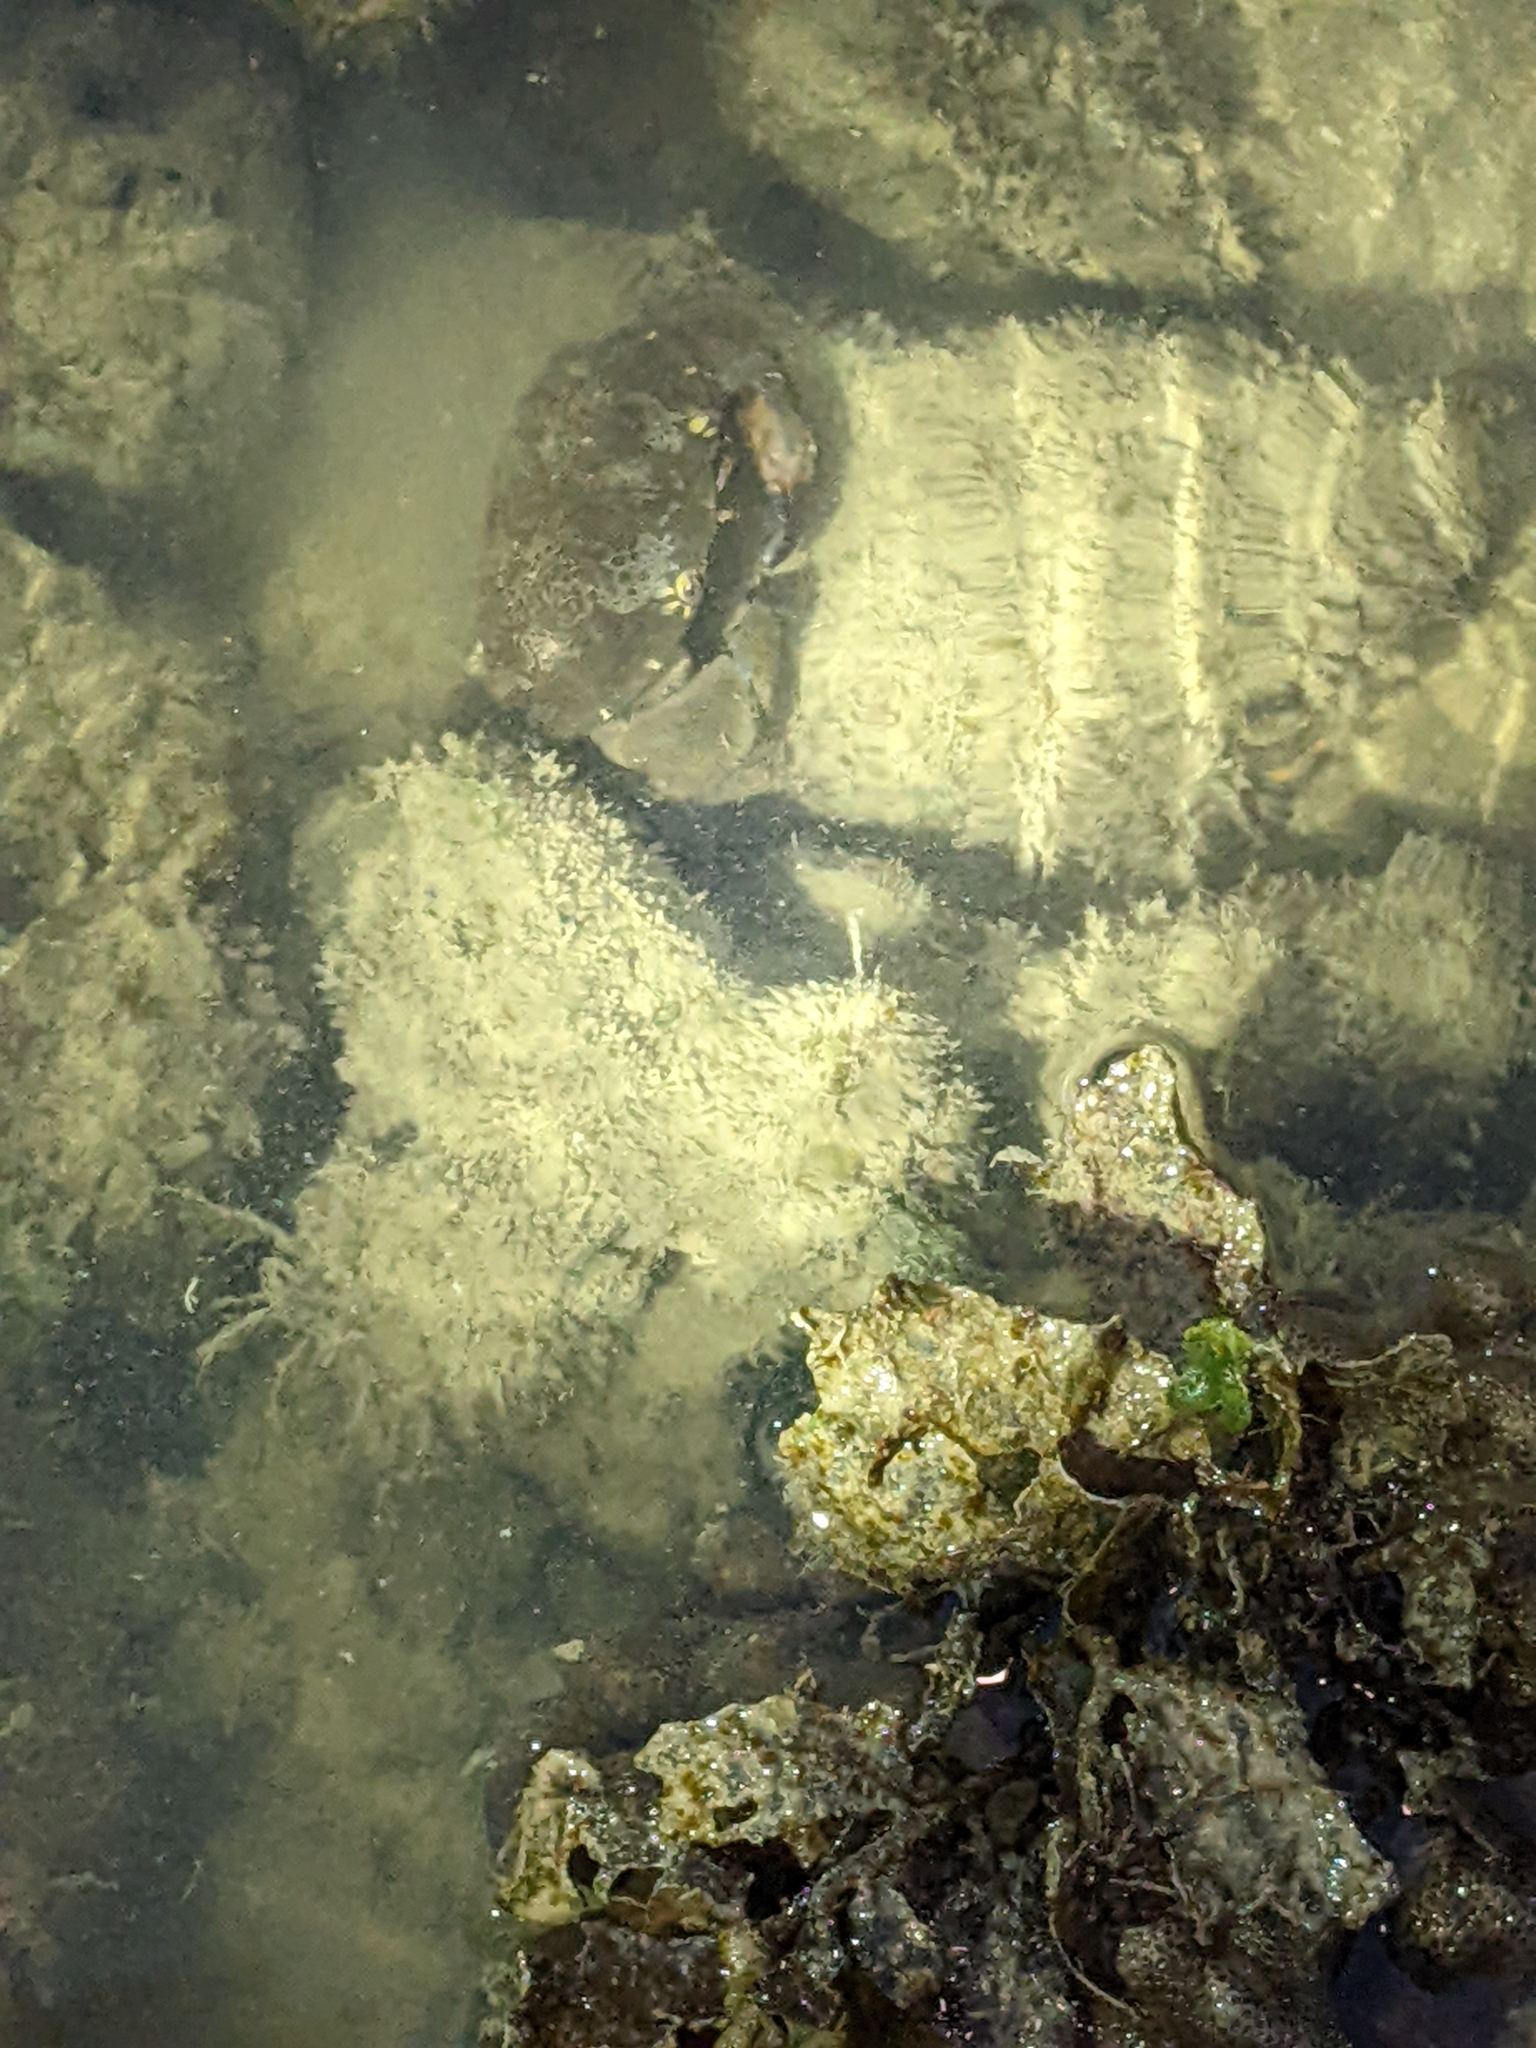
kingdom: Animalia
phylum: Arthropoda
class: Malacostraca
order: Decapoda
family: Xanthidae
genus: Atergatis
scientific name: Atergatis floridus
